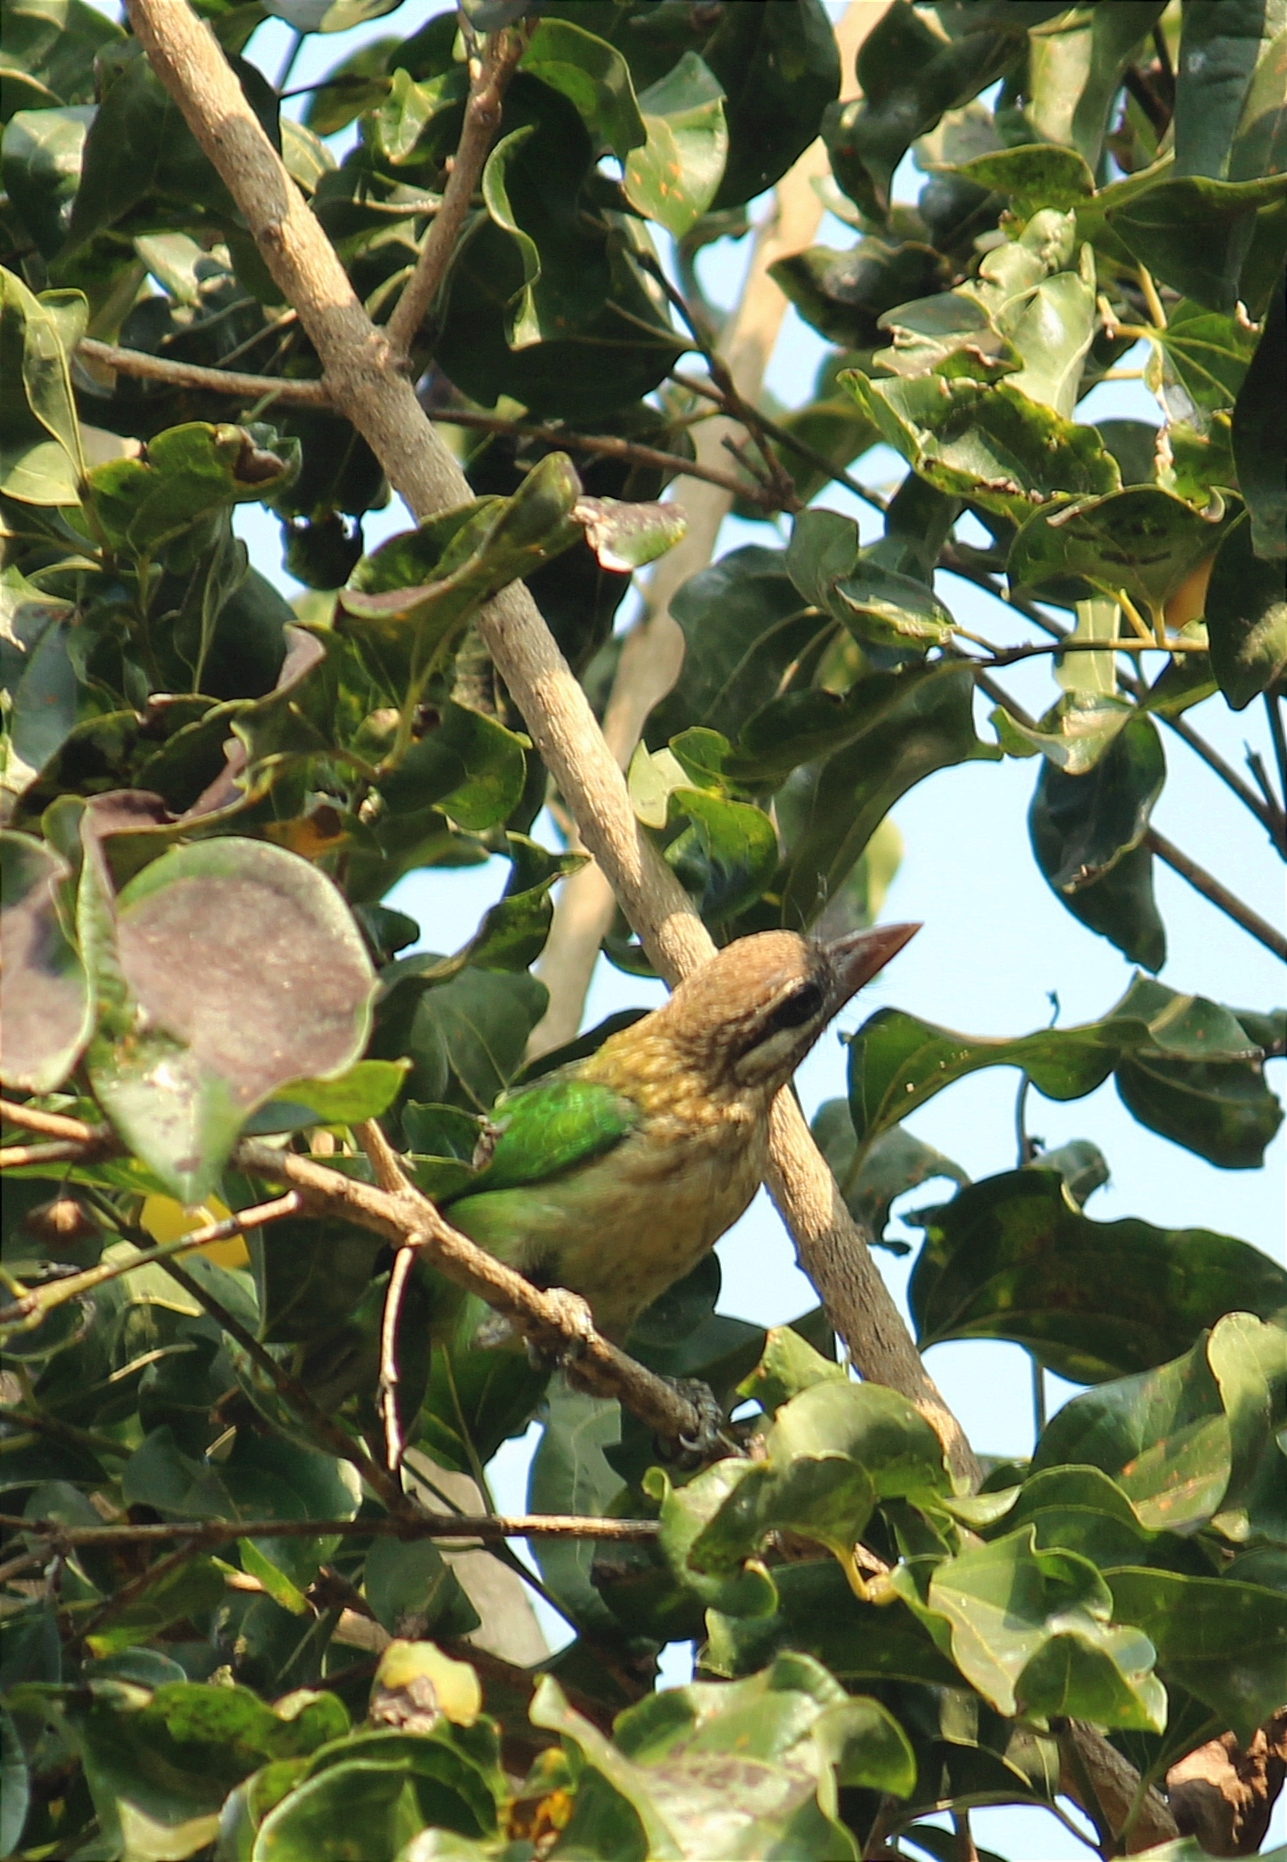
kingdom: Animalia
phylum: Chordata
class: Aves
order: Piciformes
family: Megalaimidae
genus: Psilopogon
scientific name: Psilopogon viridis
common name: White-cheeked barbet
